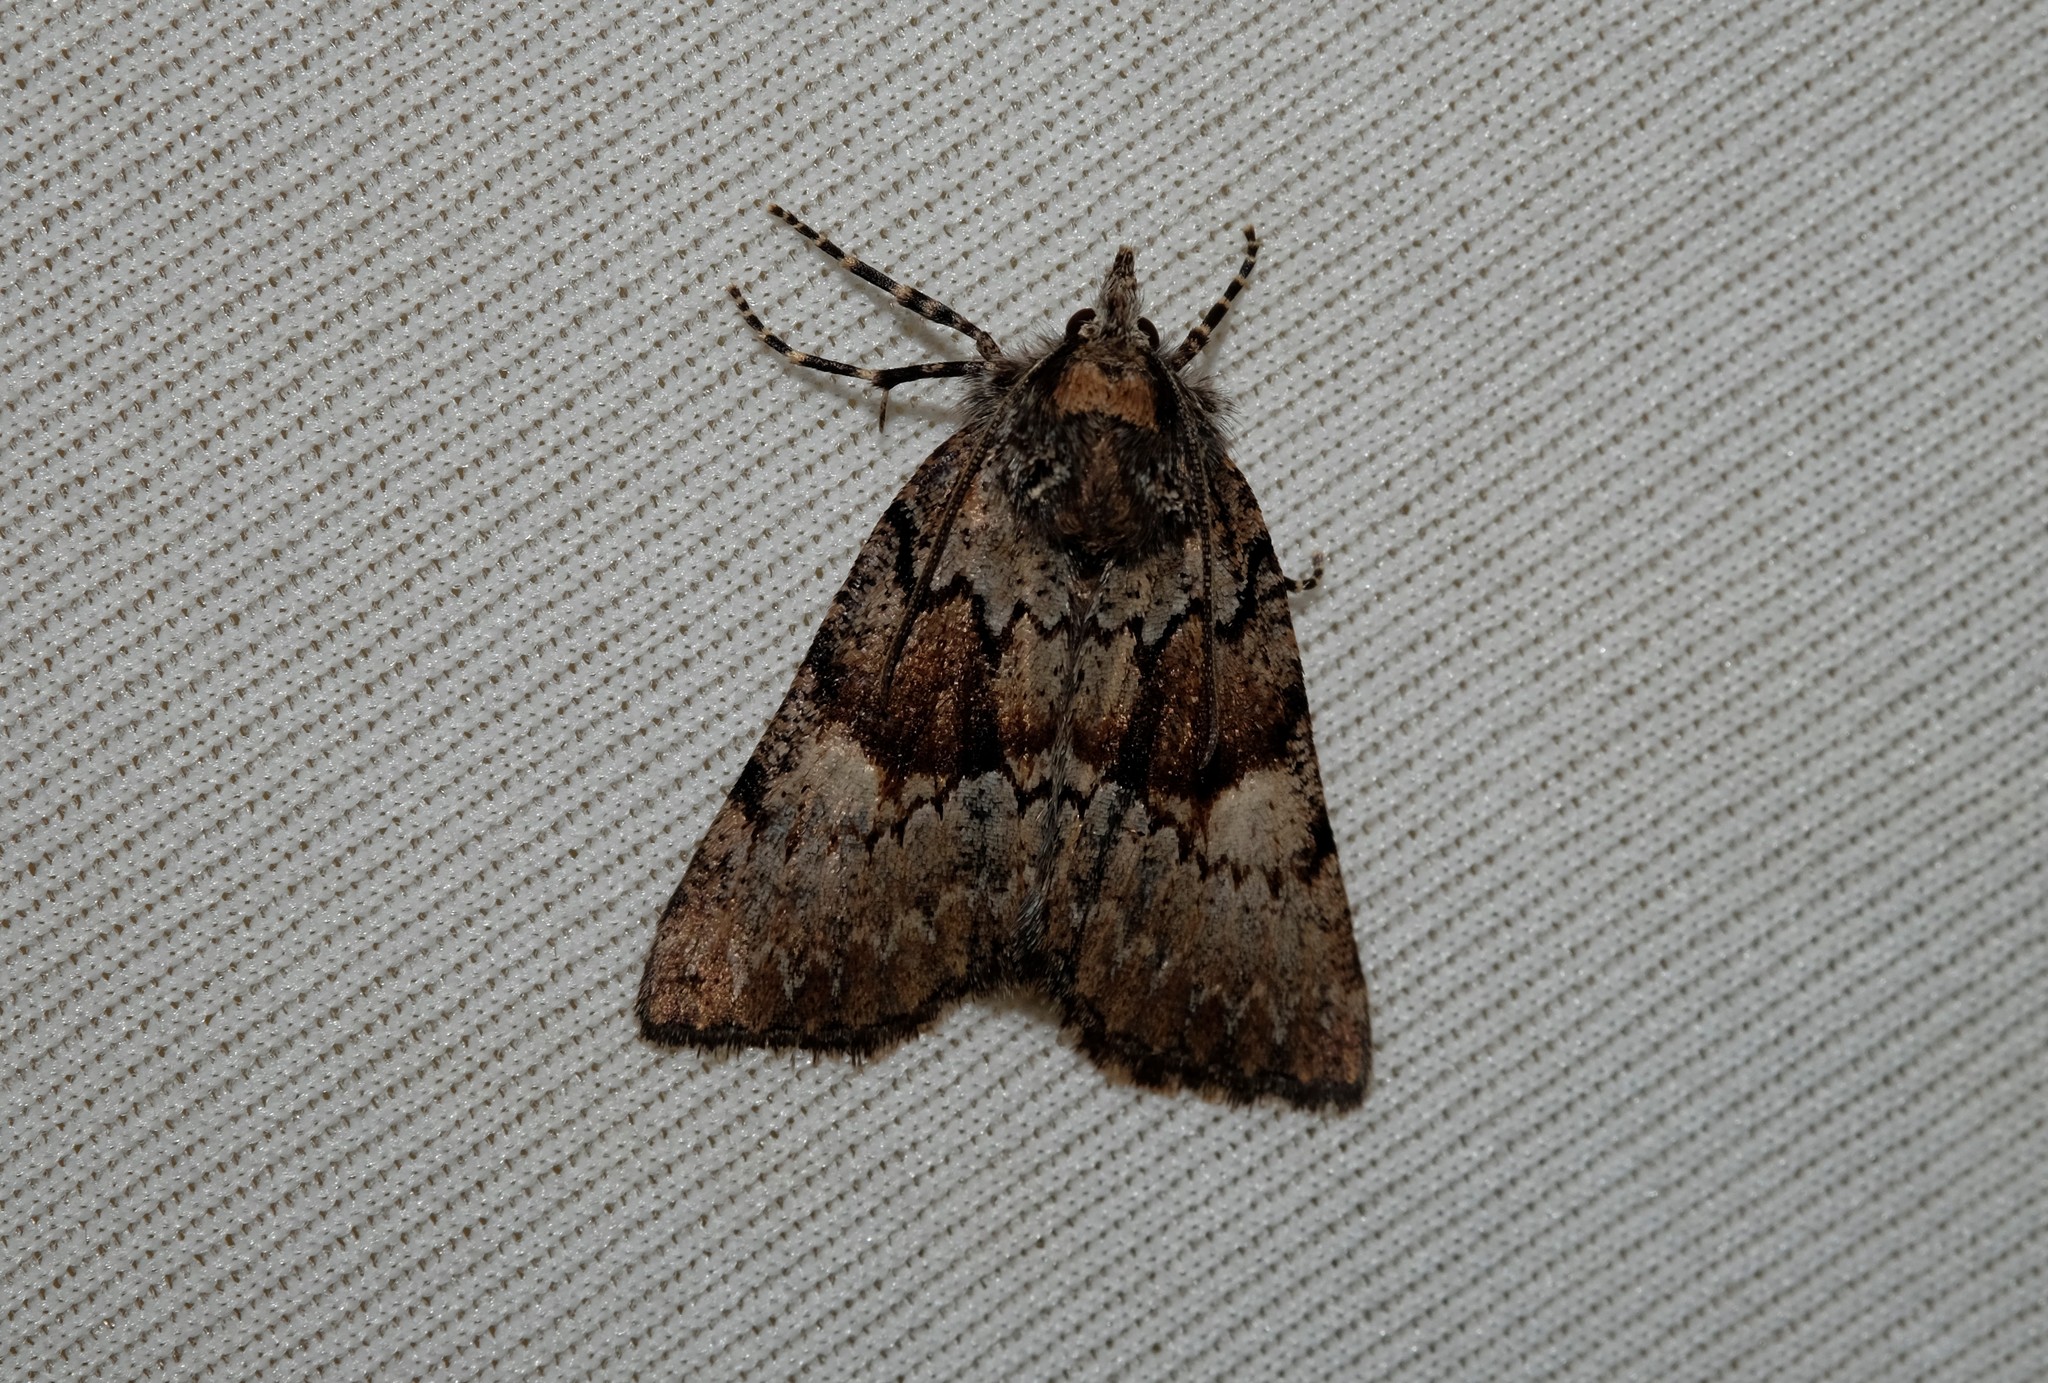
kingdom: Animalia
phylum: Arthropoda
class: Insecta
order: Lepidoptera
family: Geometridae
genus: Smyriodes
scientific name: Smyriodes
